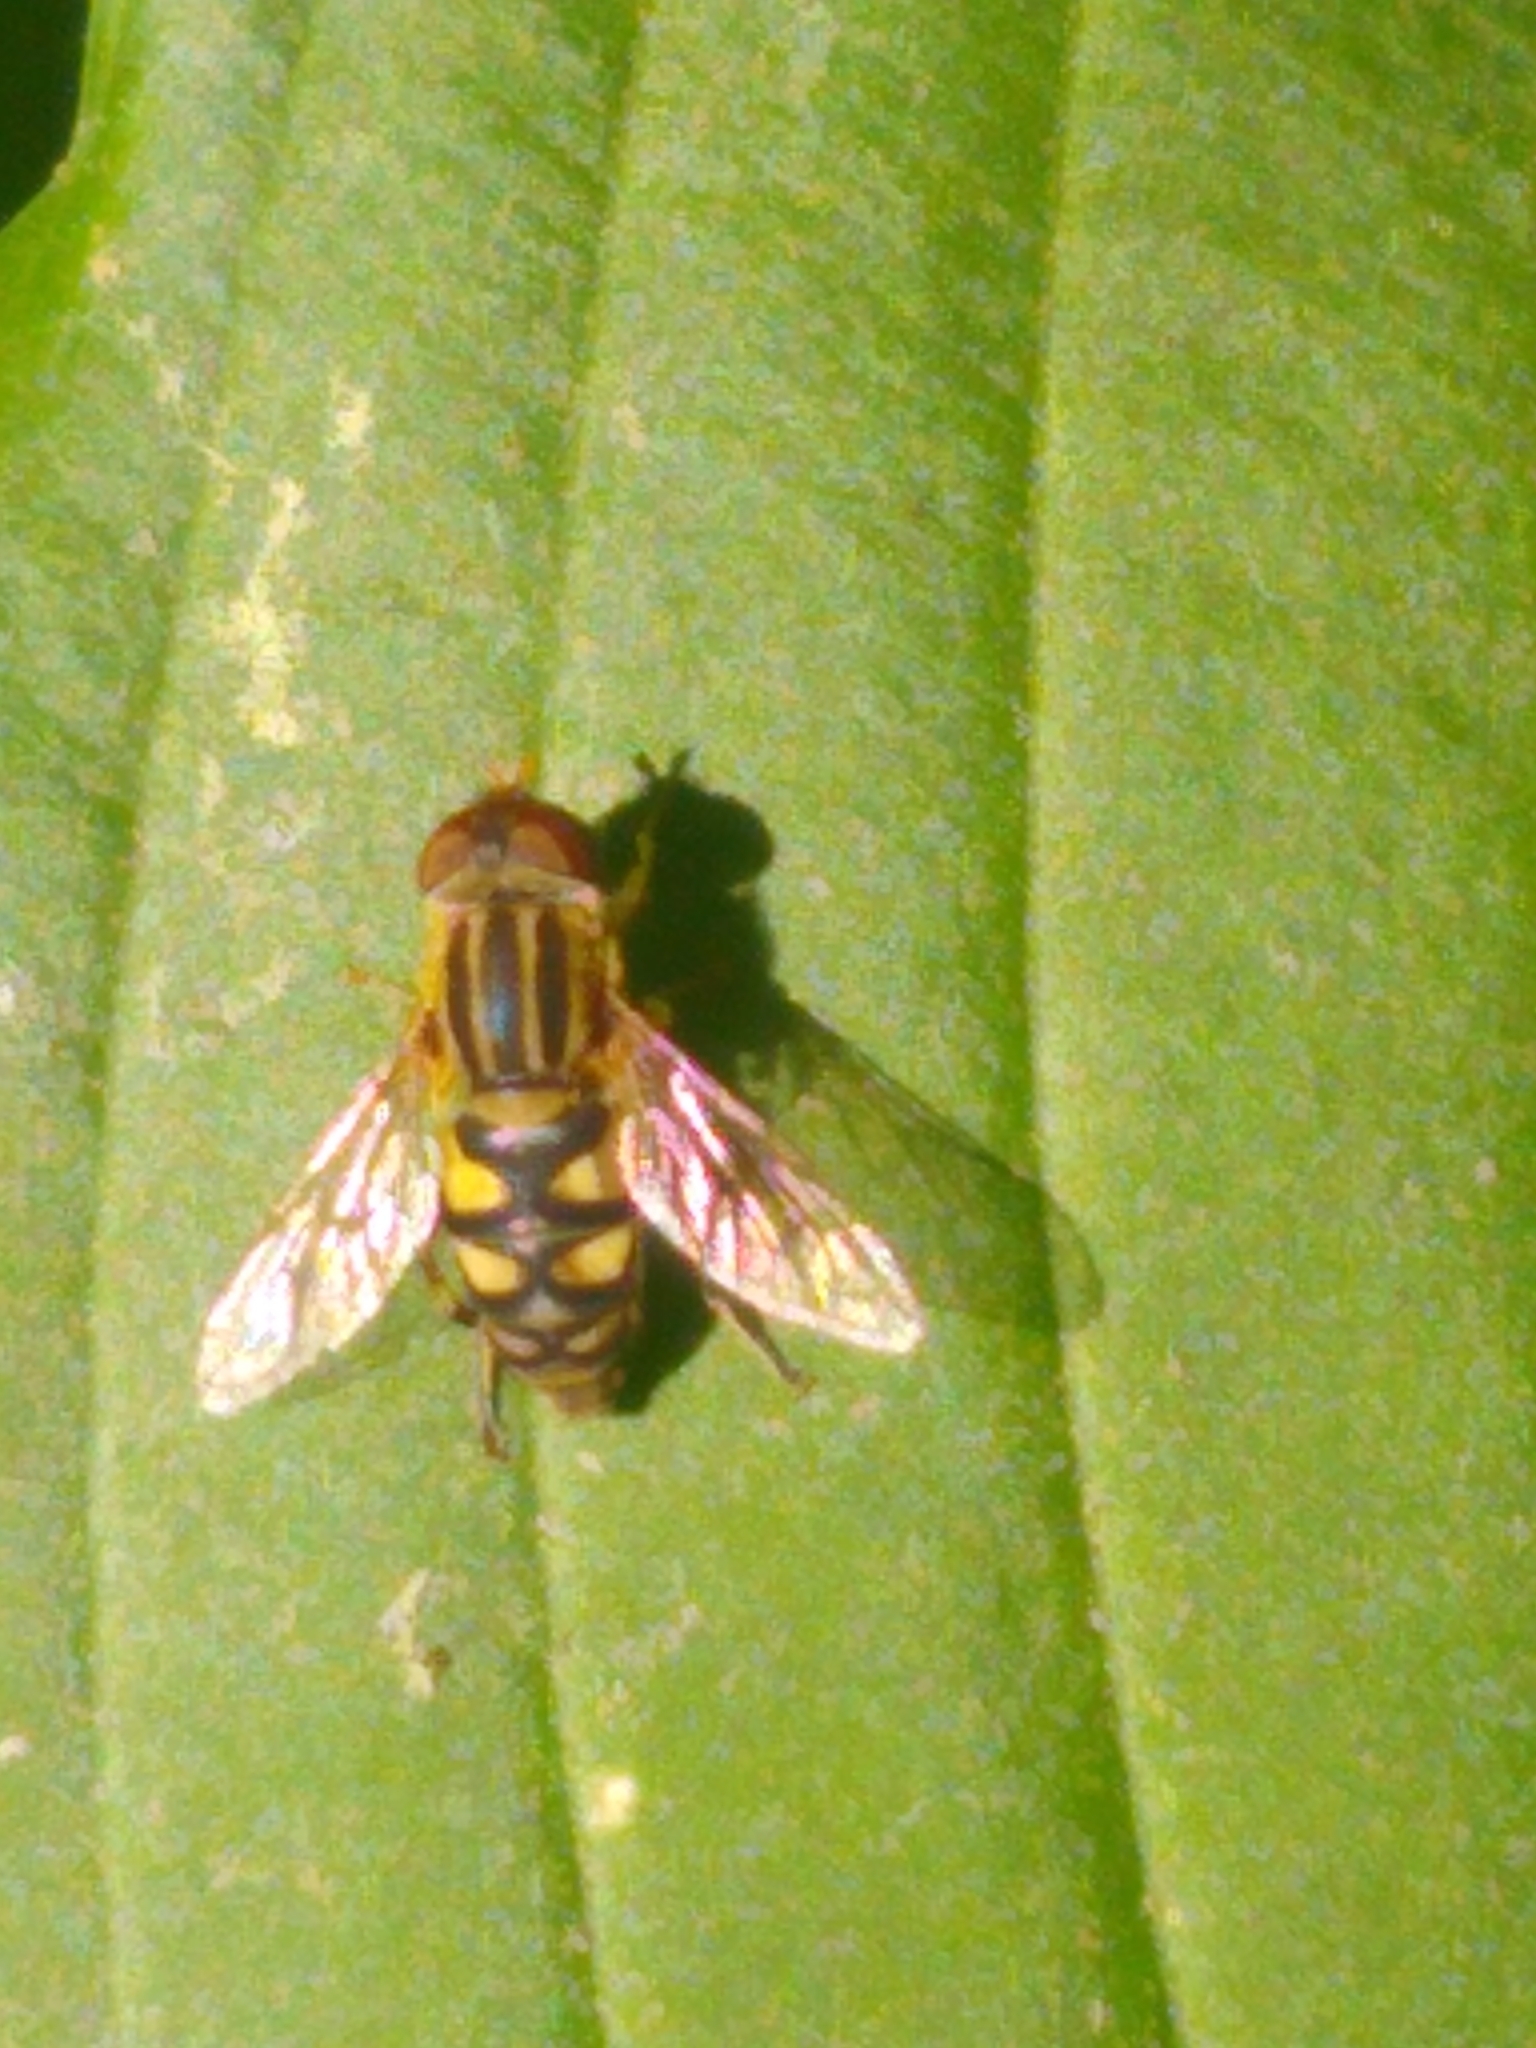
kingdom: Animalia
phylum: Arthropoda
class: Insecta
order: Diptera
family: Syrphidae
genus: Parhelophilus
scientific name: Parhelophilus integer
